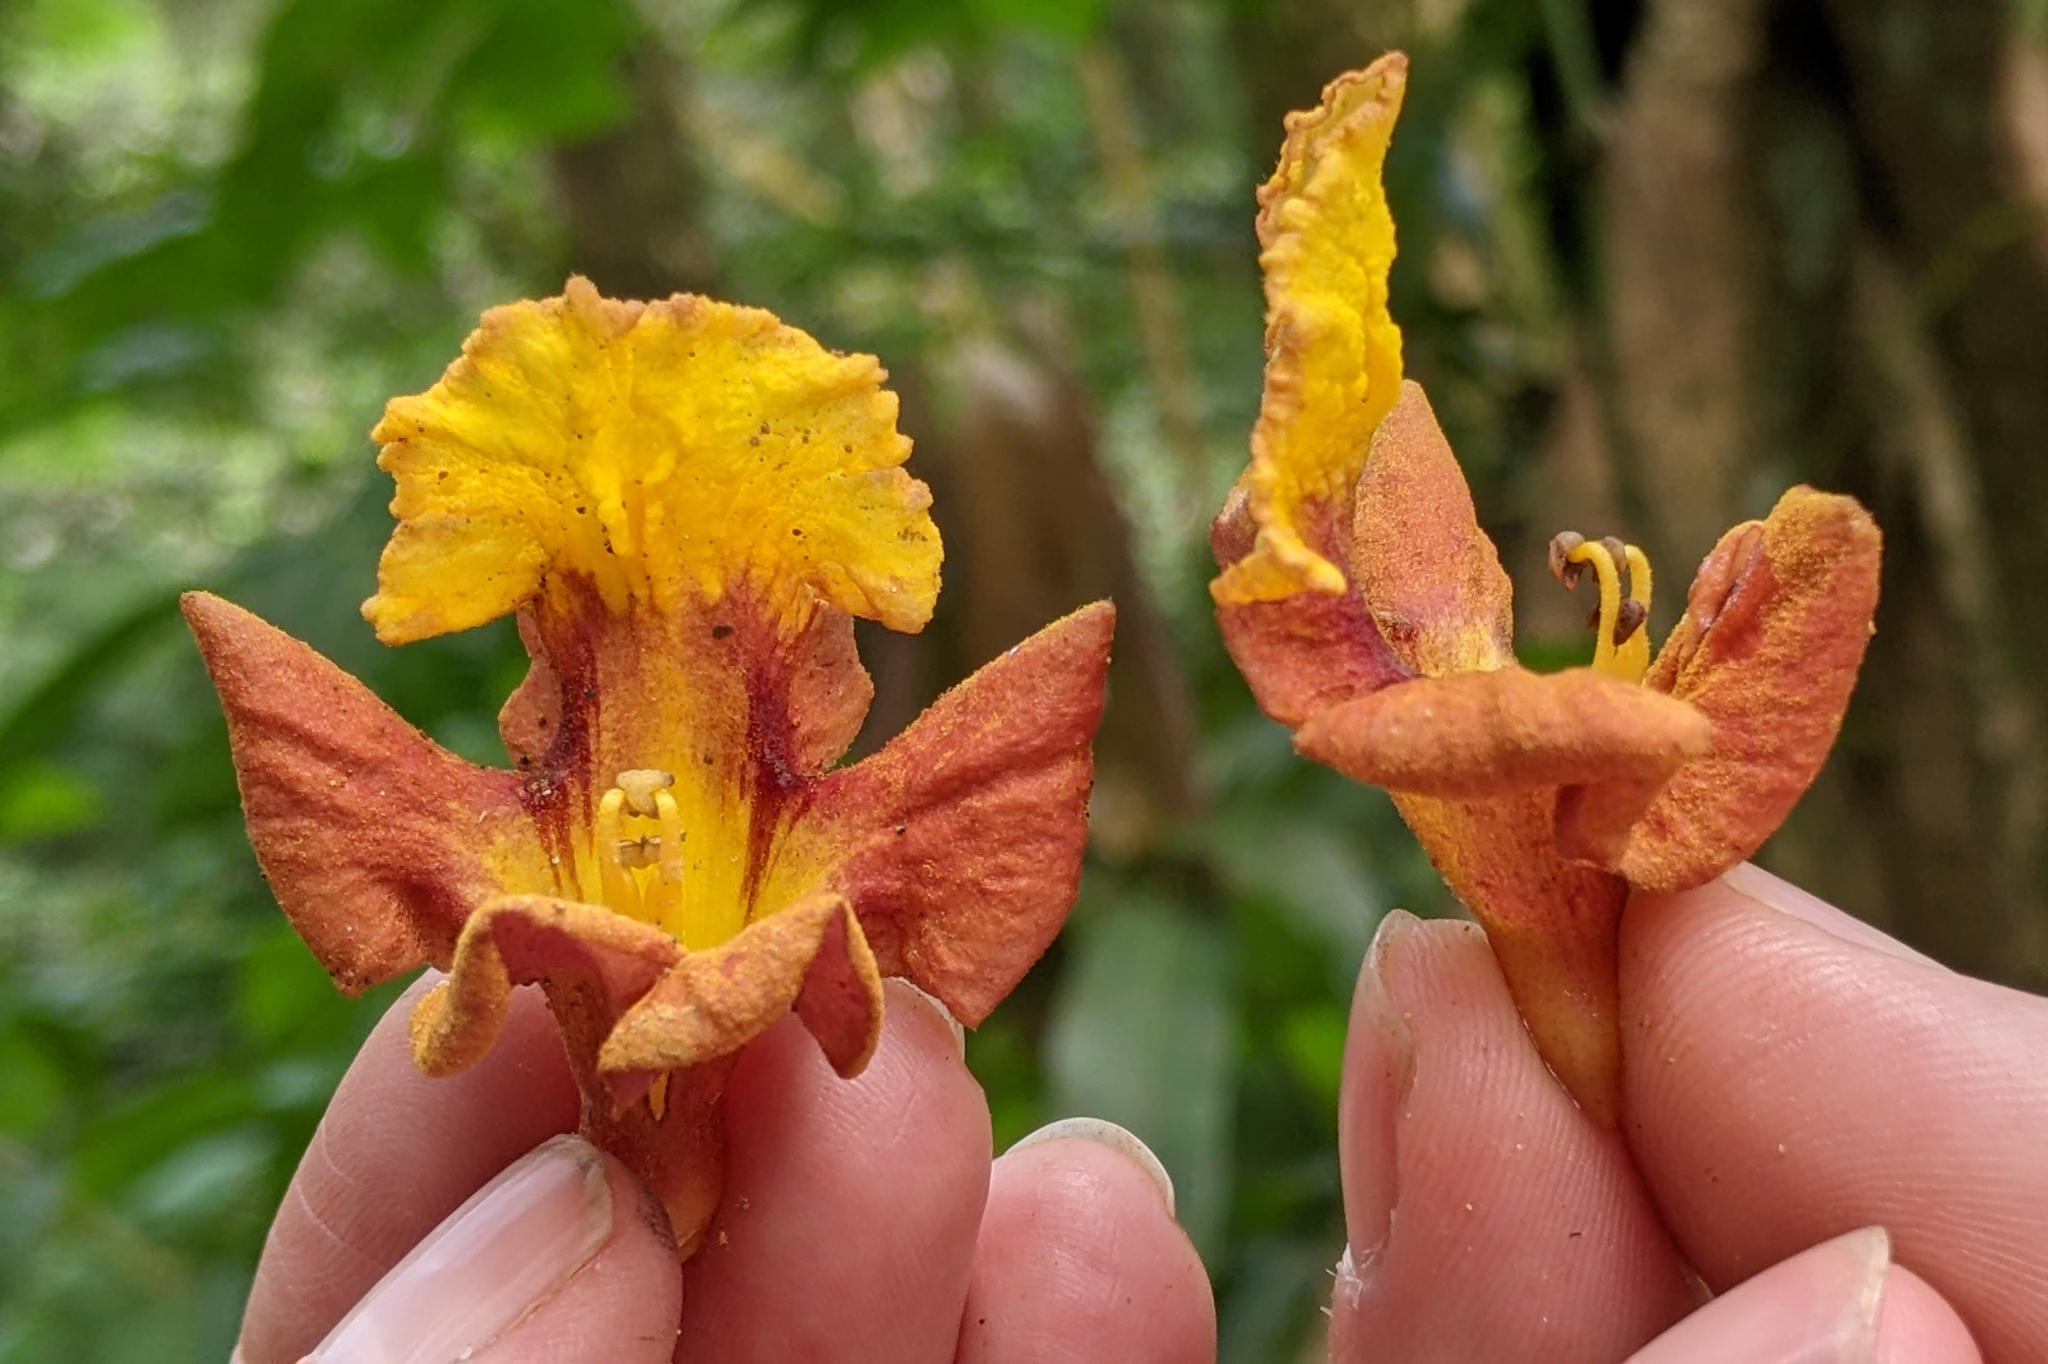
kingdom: Plantae
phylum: Tracheophyta
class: Magnoliopsida
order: Lamiales
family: Lamiaceae
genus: Gmelina
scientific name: Gmelina arborea
